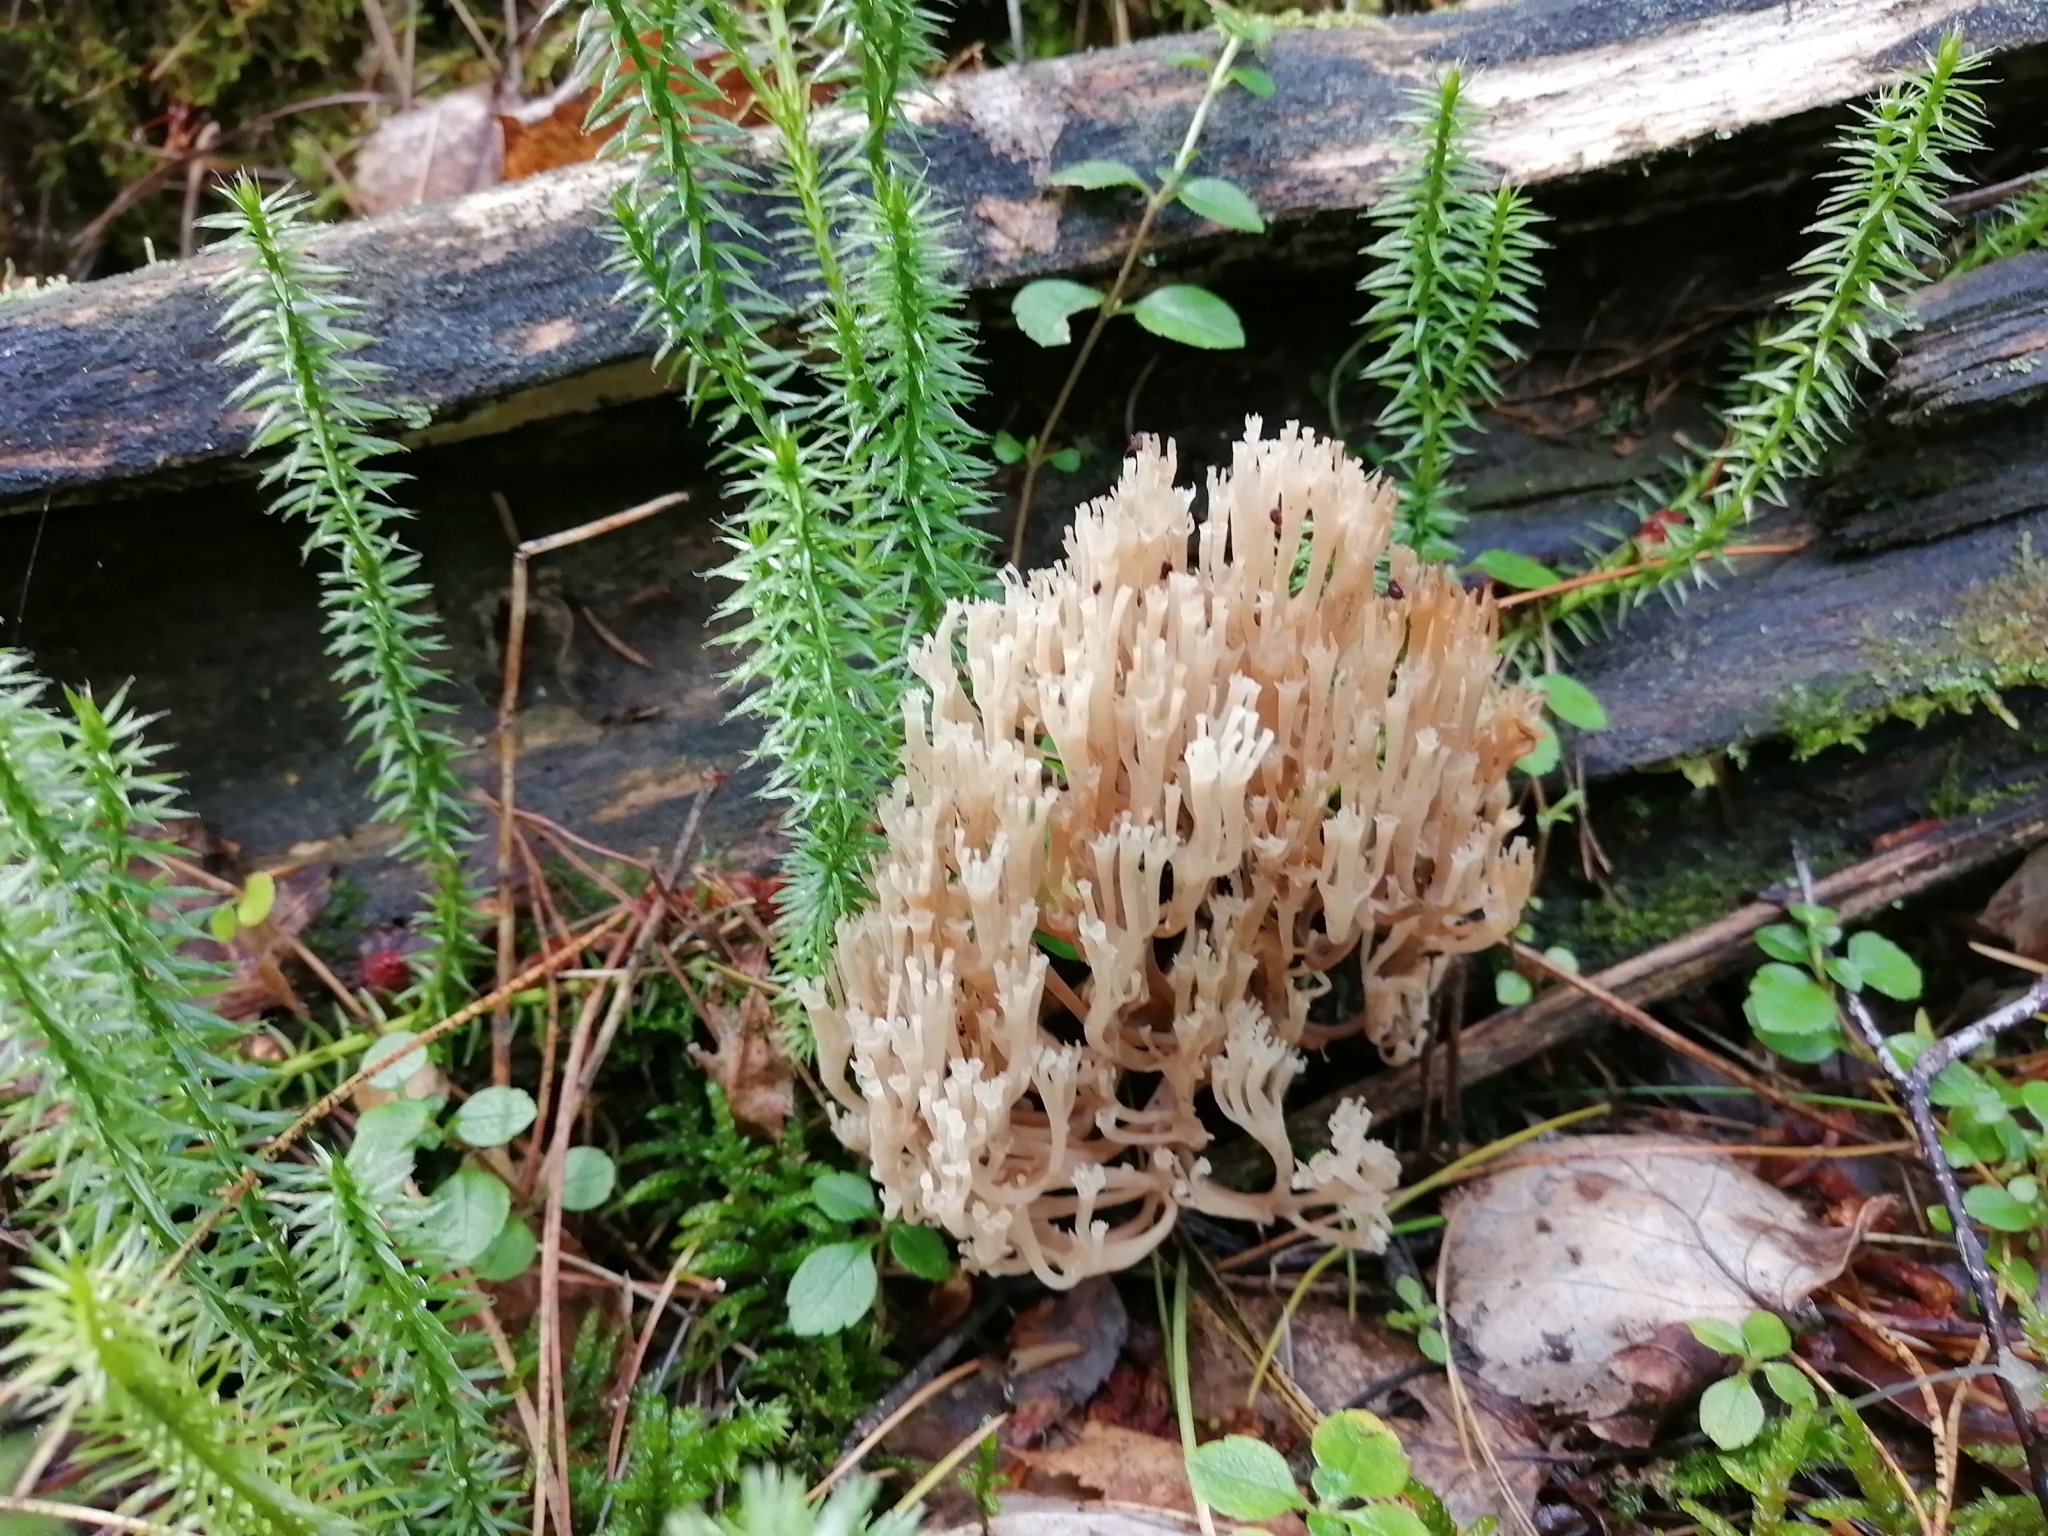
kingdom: Fungi
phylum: Basidiomycota
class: Agaricomycetes
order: Russulales
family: Auriscalpiaceae
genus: Artomyces
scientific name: Artomyces pyxidatus
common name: Crown-tipped coral fungus
